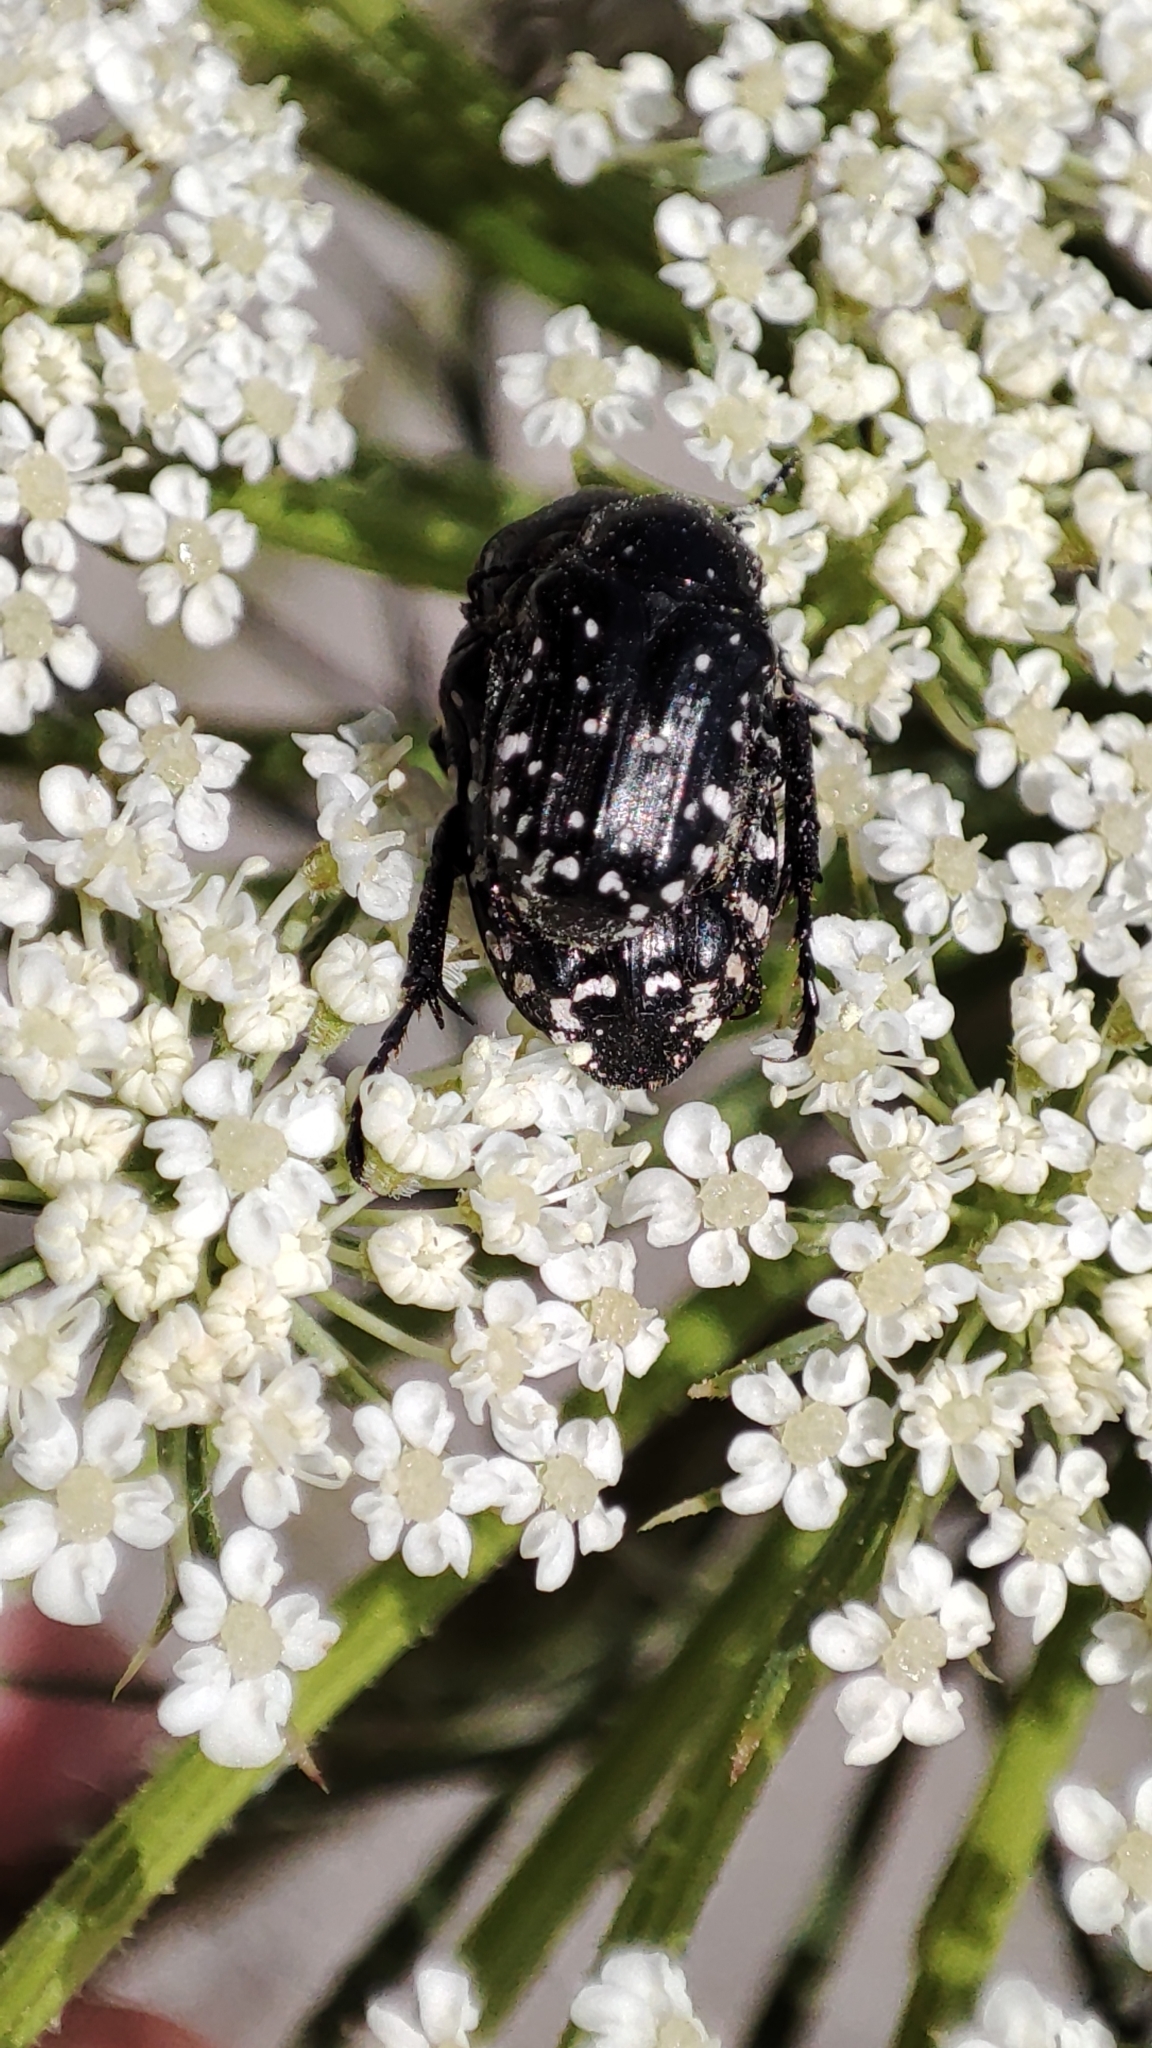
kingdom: Animalia
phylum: Arthropoda
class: Insecta
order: Coleoptera
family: Scarabaeidae
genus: Oxythyrea
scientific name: Oxythyrea cinctella
